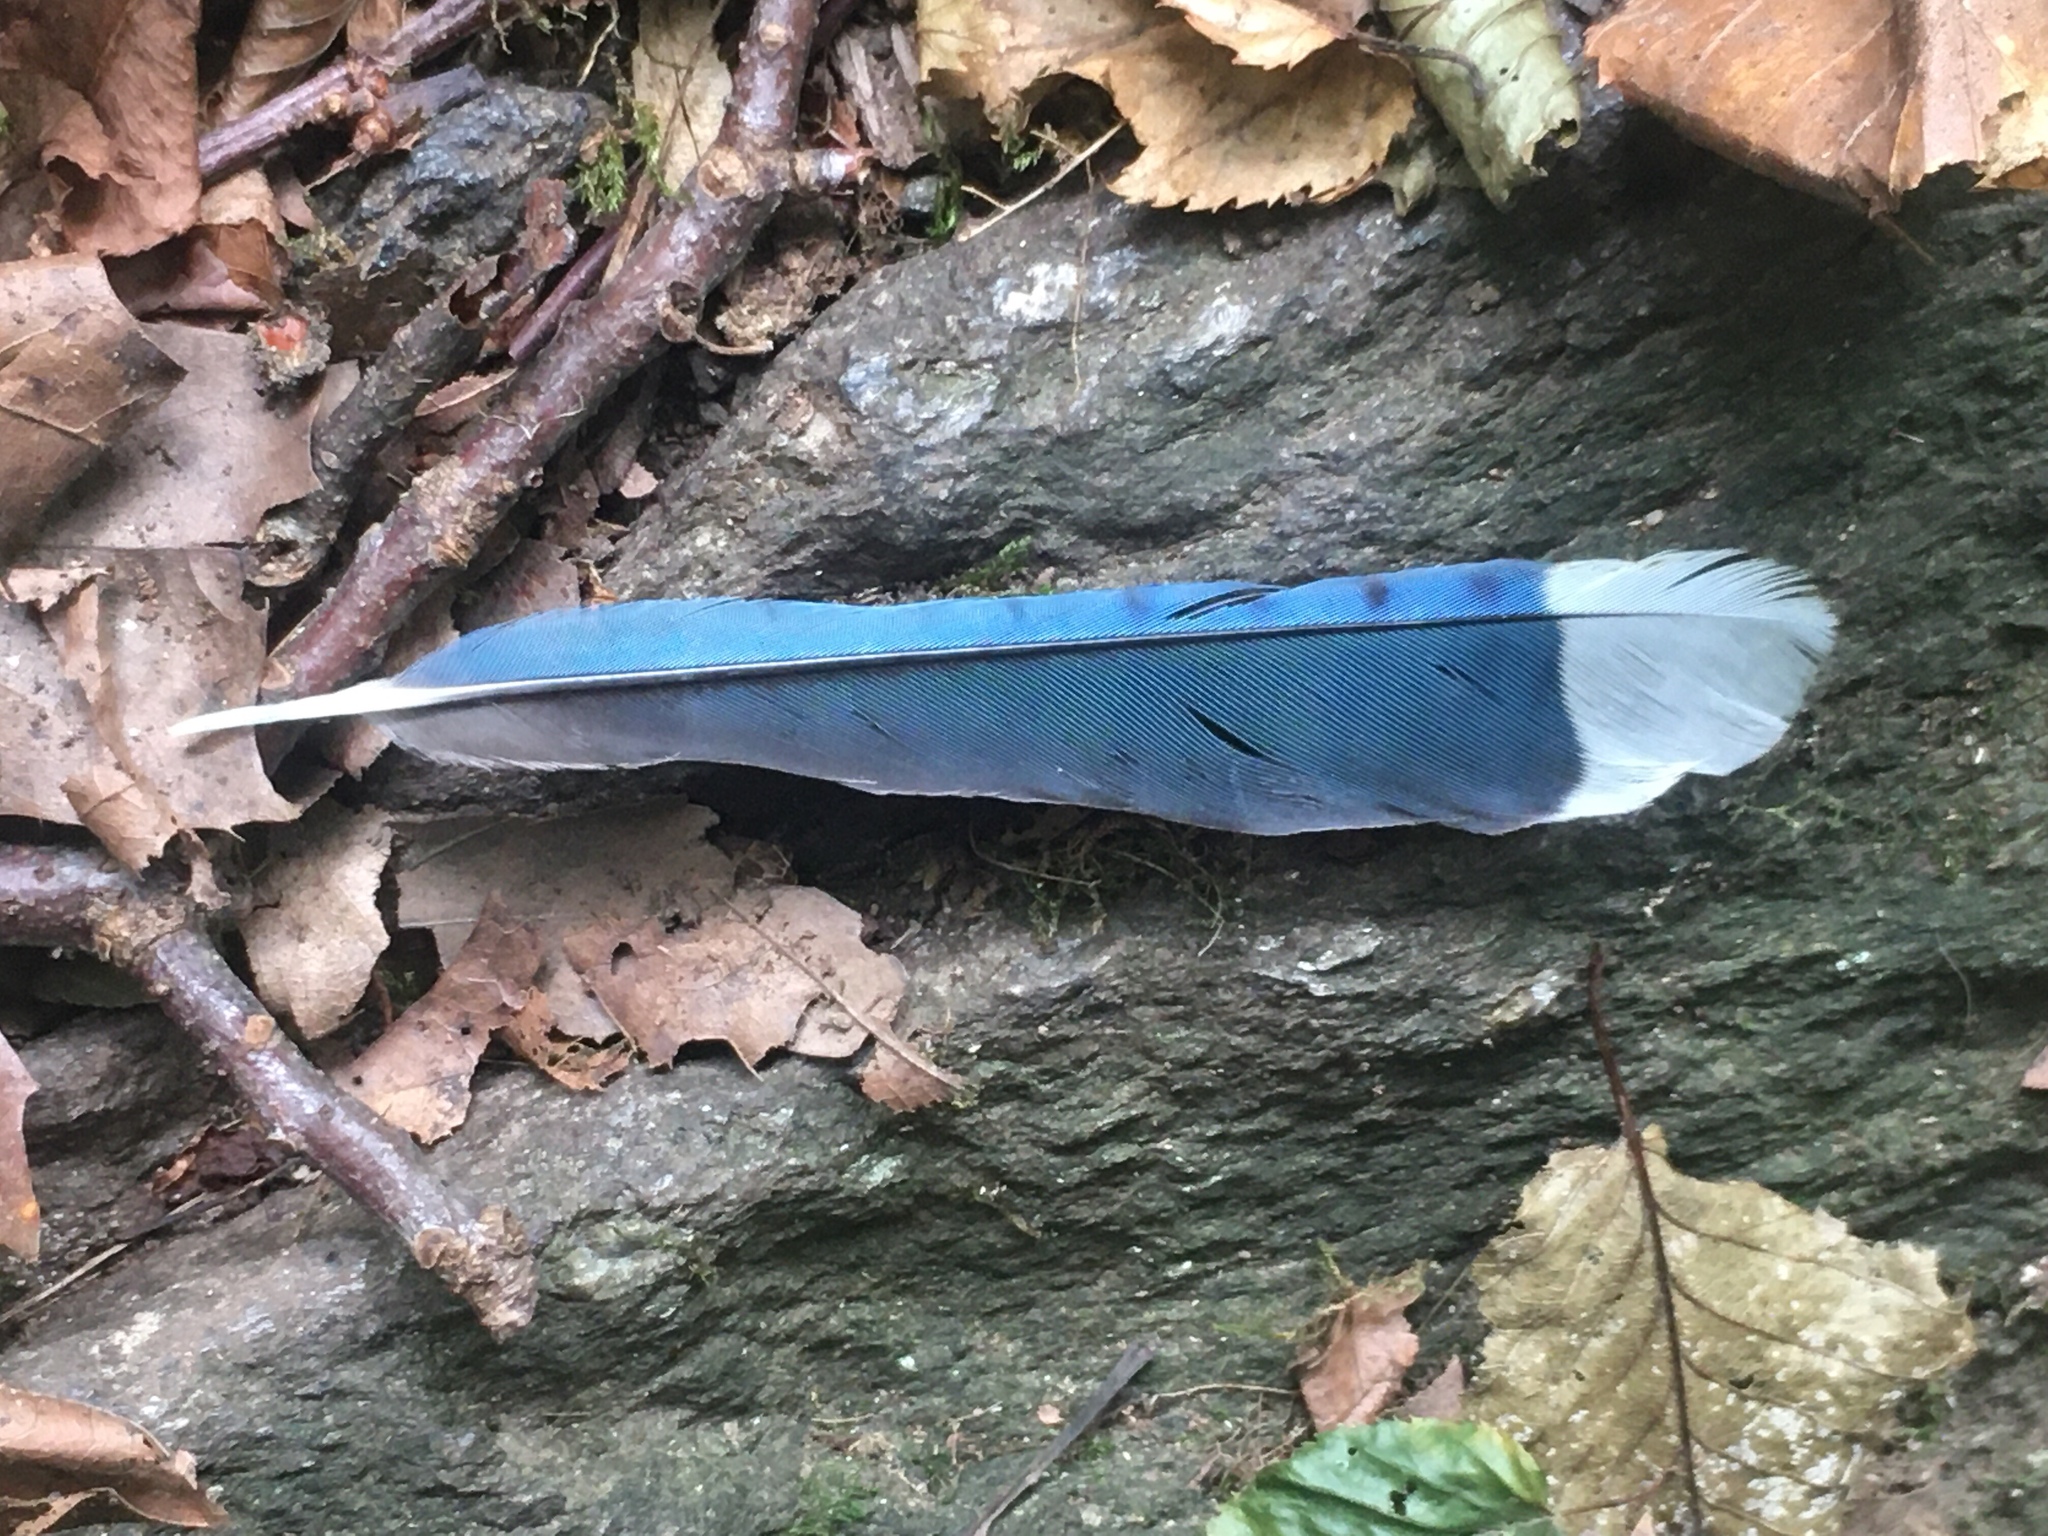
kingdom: Animalia
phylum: Chordata
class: Aves
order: Passeriformes
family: Corvidae
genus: Cyanocitta
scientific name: Cyanocitta cristata
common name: Blue jay
